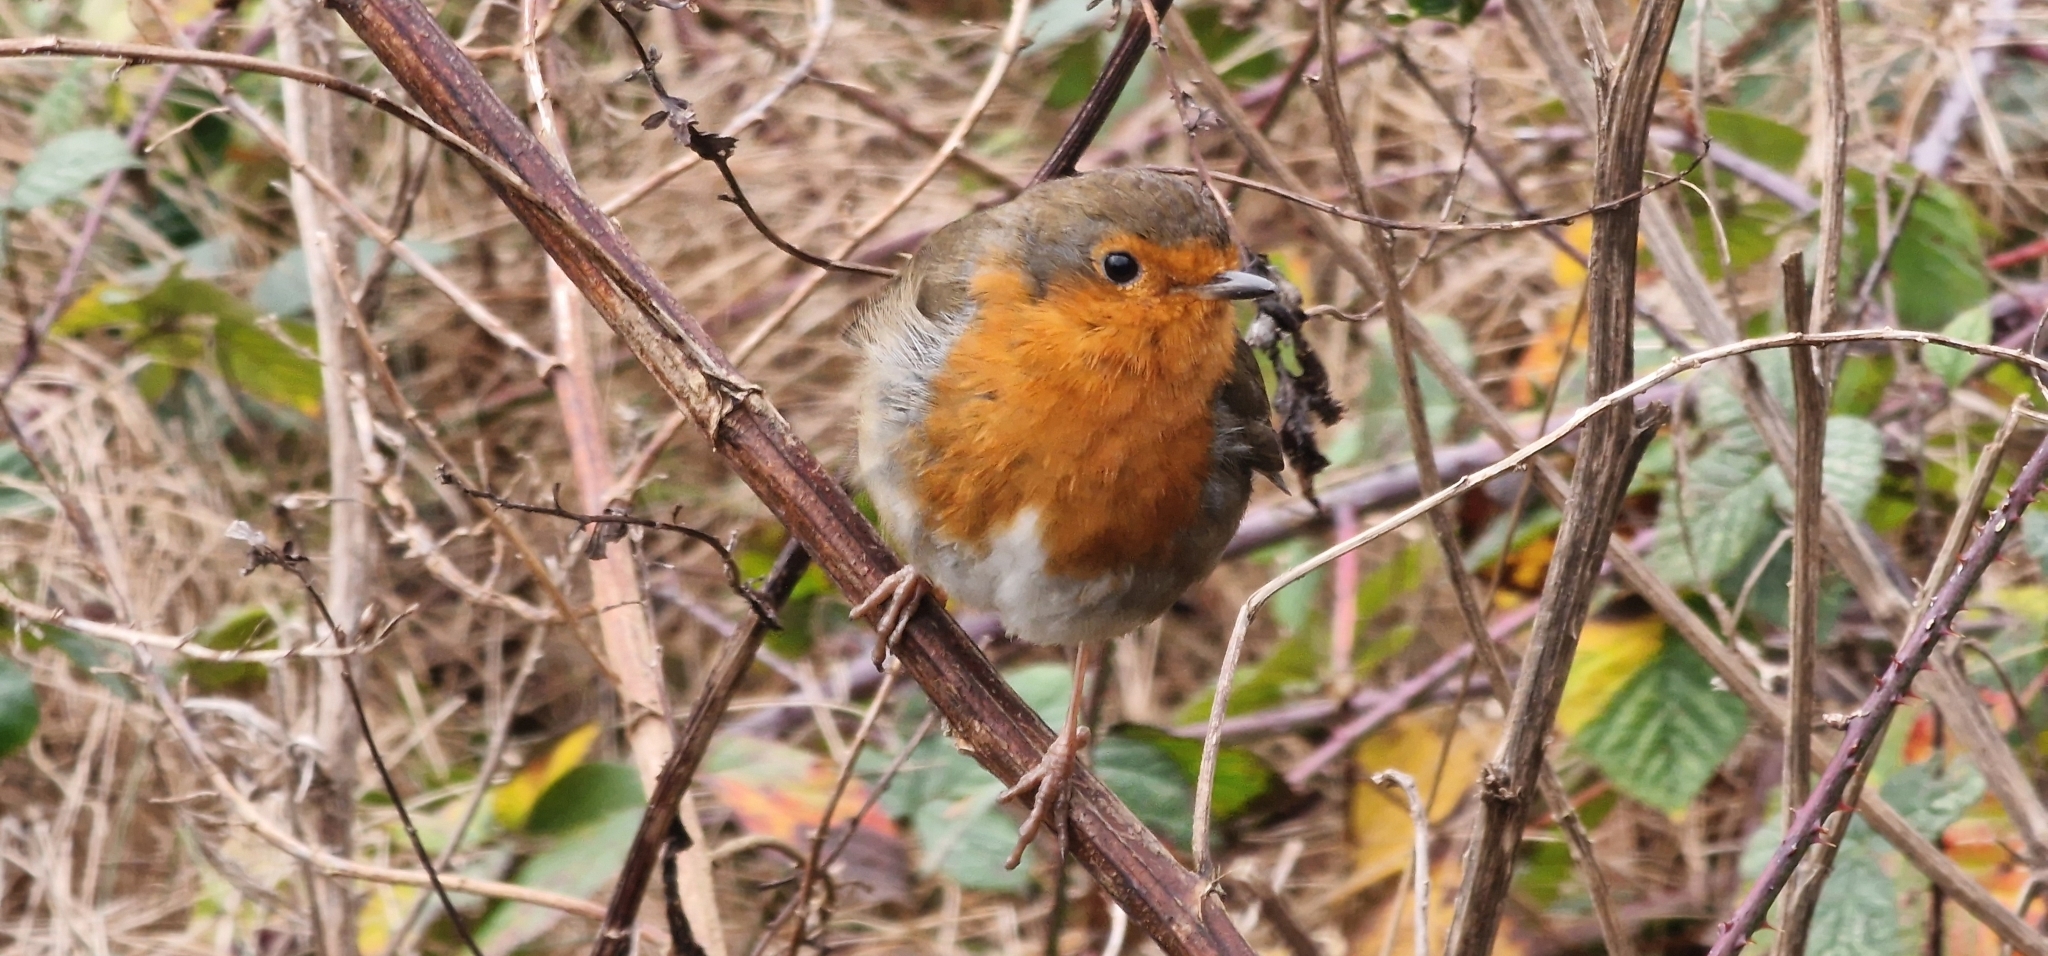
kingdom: Animalia
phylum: Chordata
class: Aves
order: Passeriformes
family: Muscicapidae
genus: Erithacus
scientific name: Erithacus rubecula
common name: European robin
